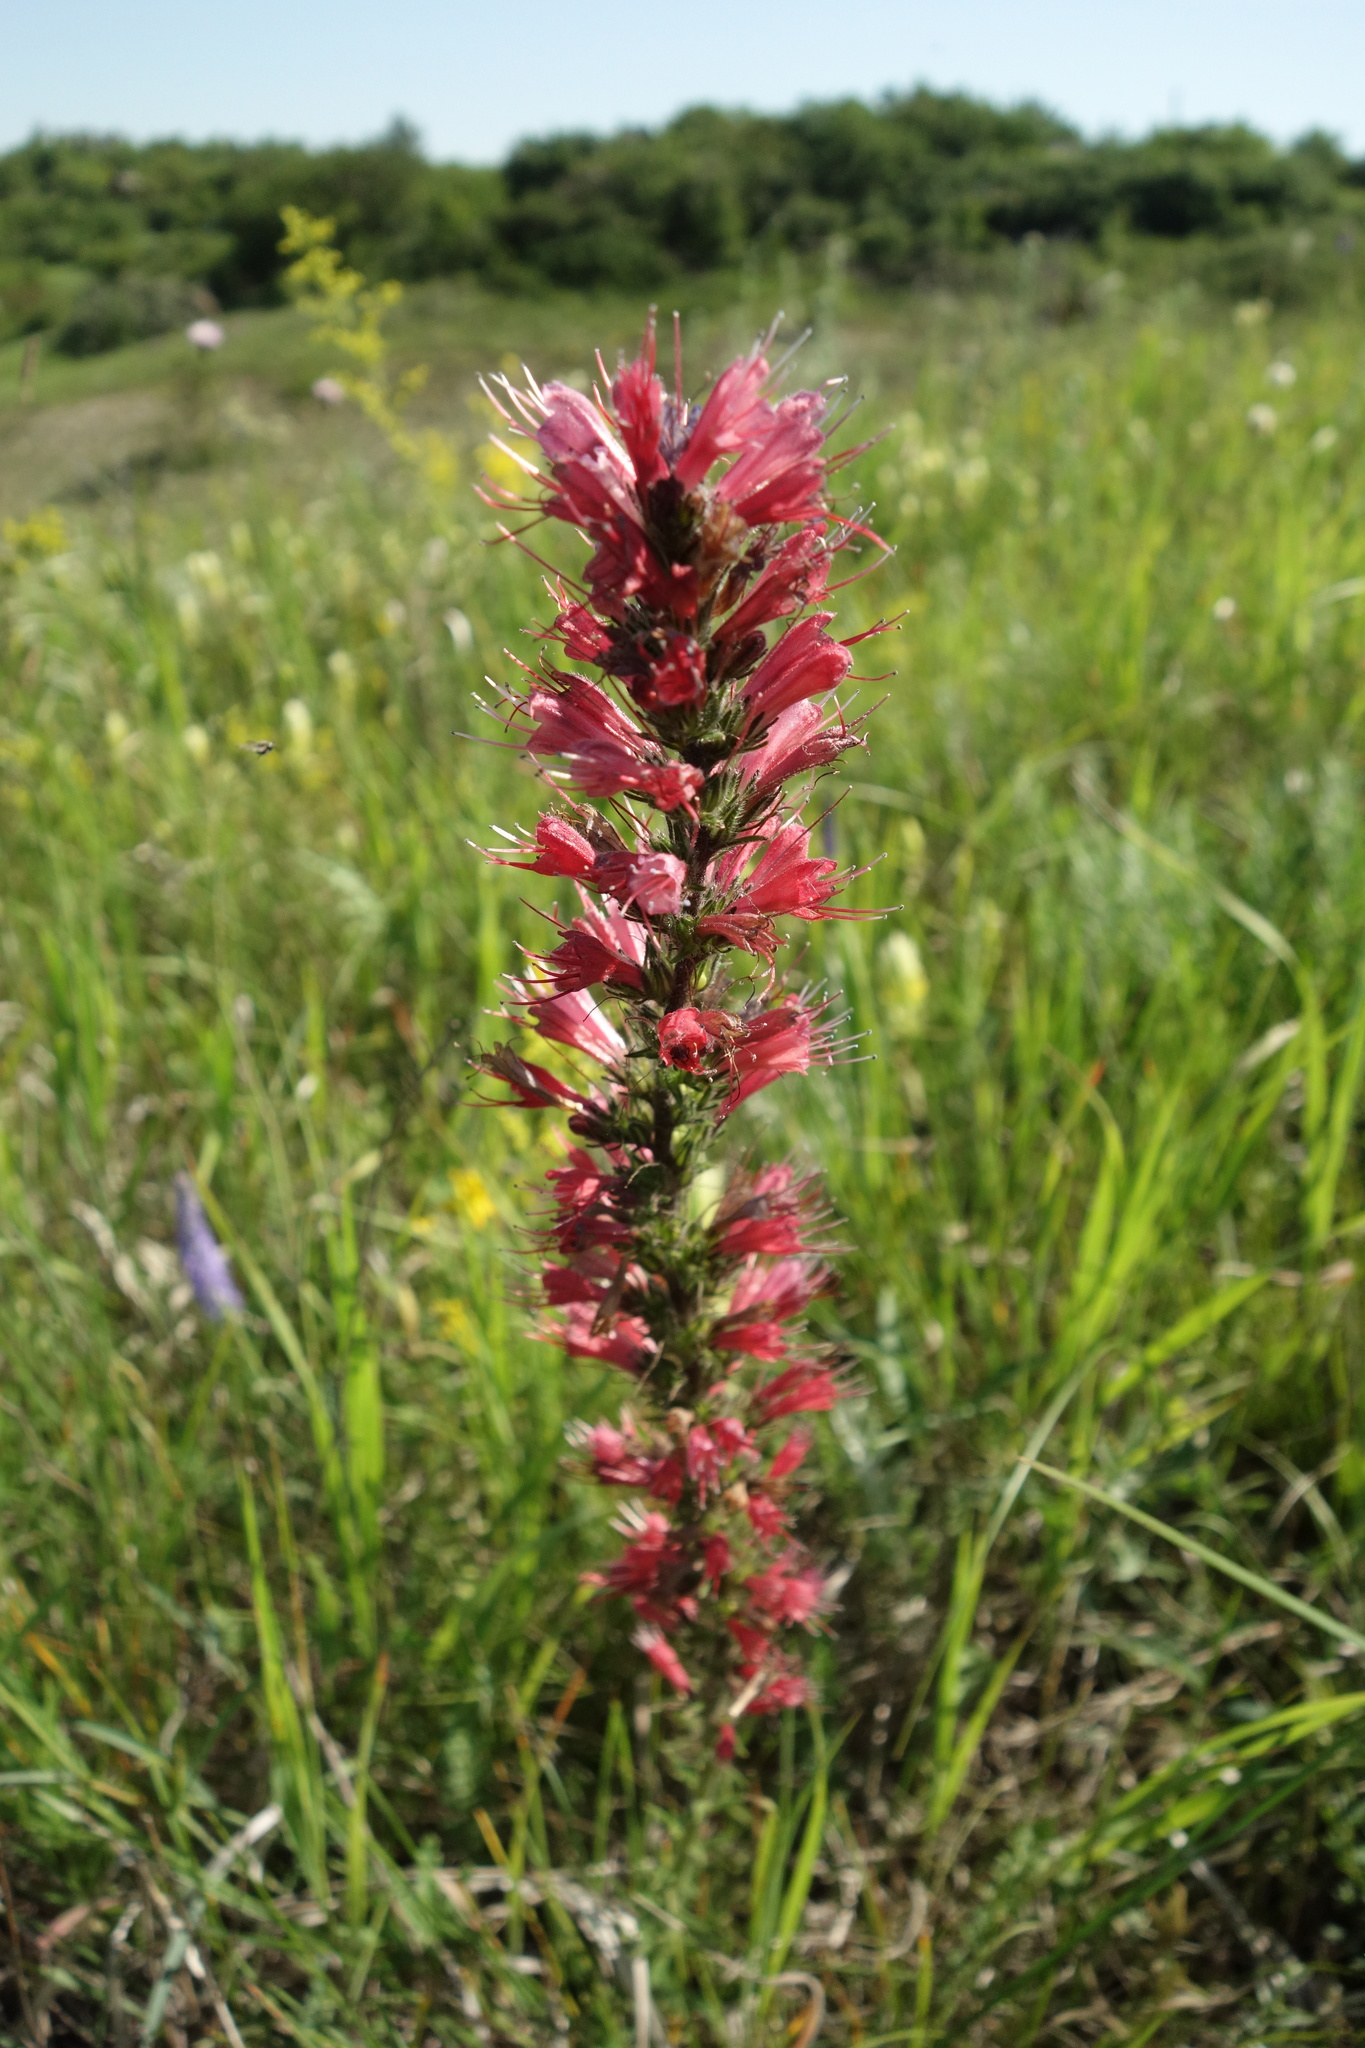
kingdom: Plantae
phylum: Tracheophyta
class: Magnoliopsida
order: Boraginales
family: Boraginaceae
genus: Pontechium
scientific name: Pontechium maculatum
